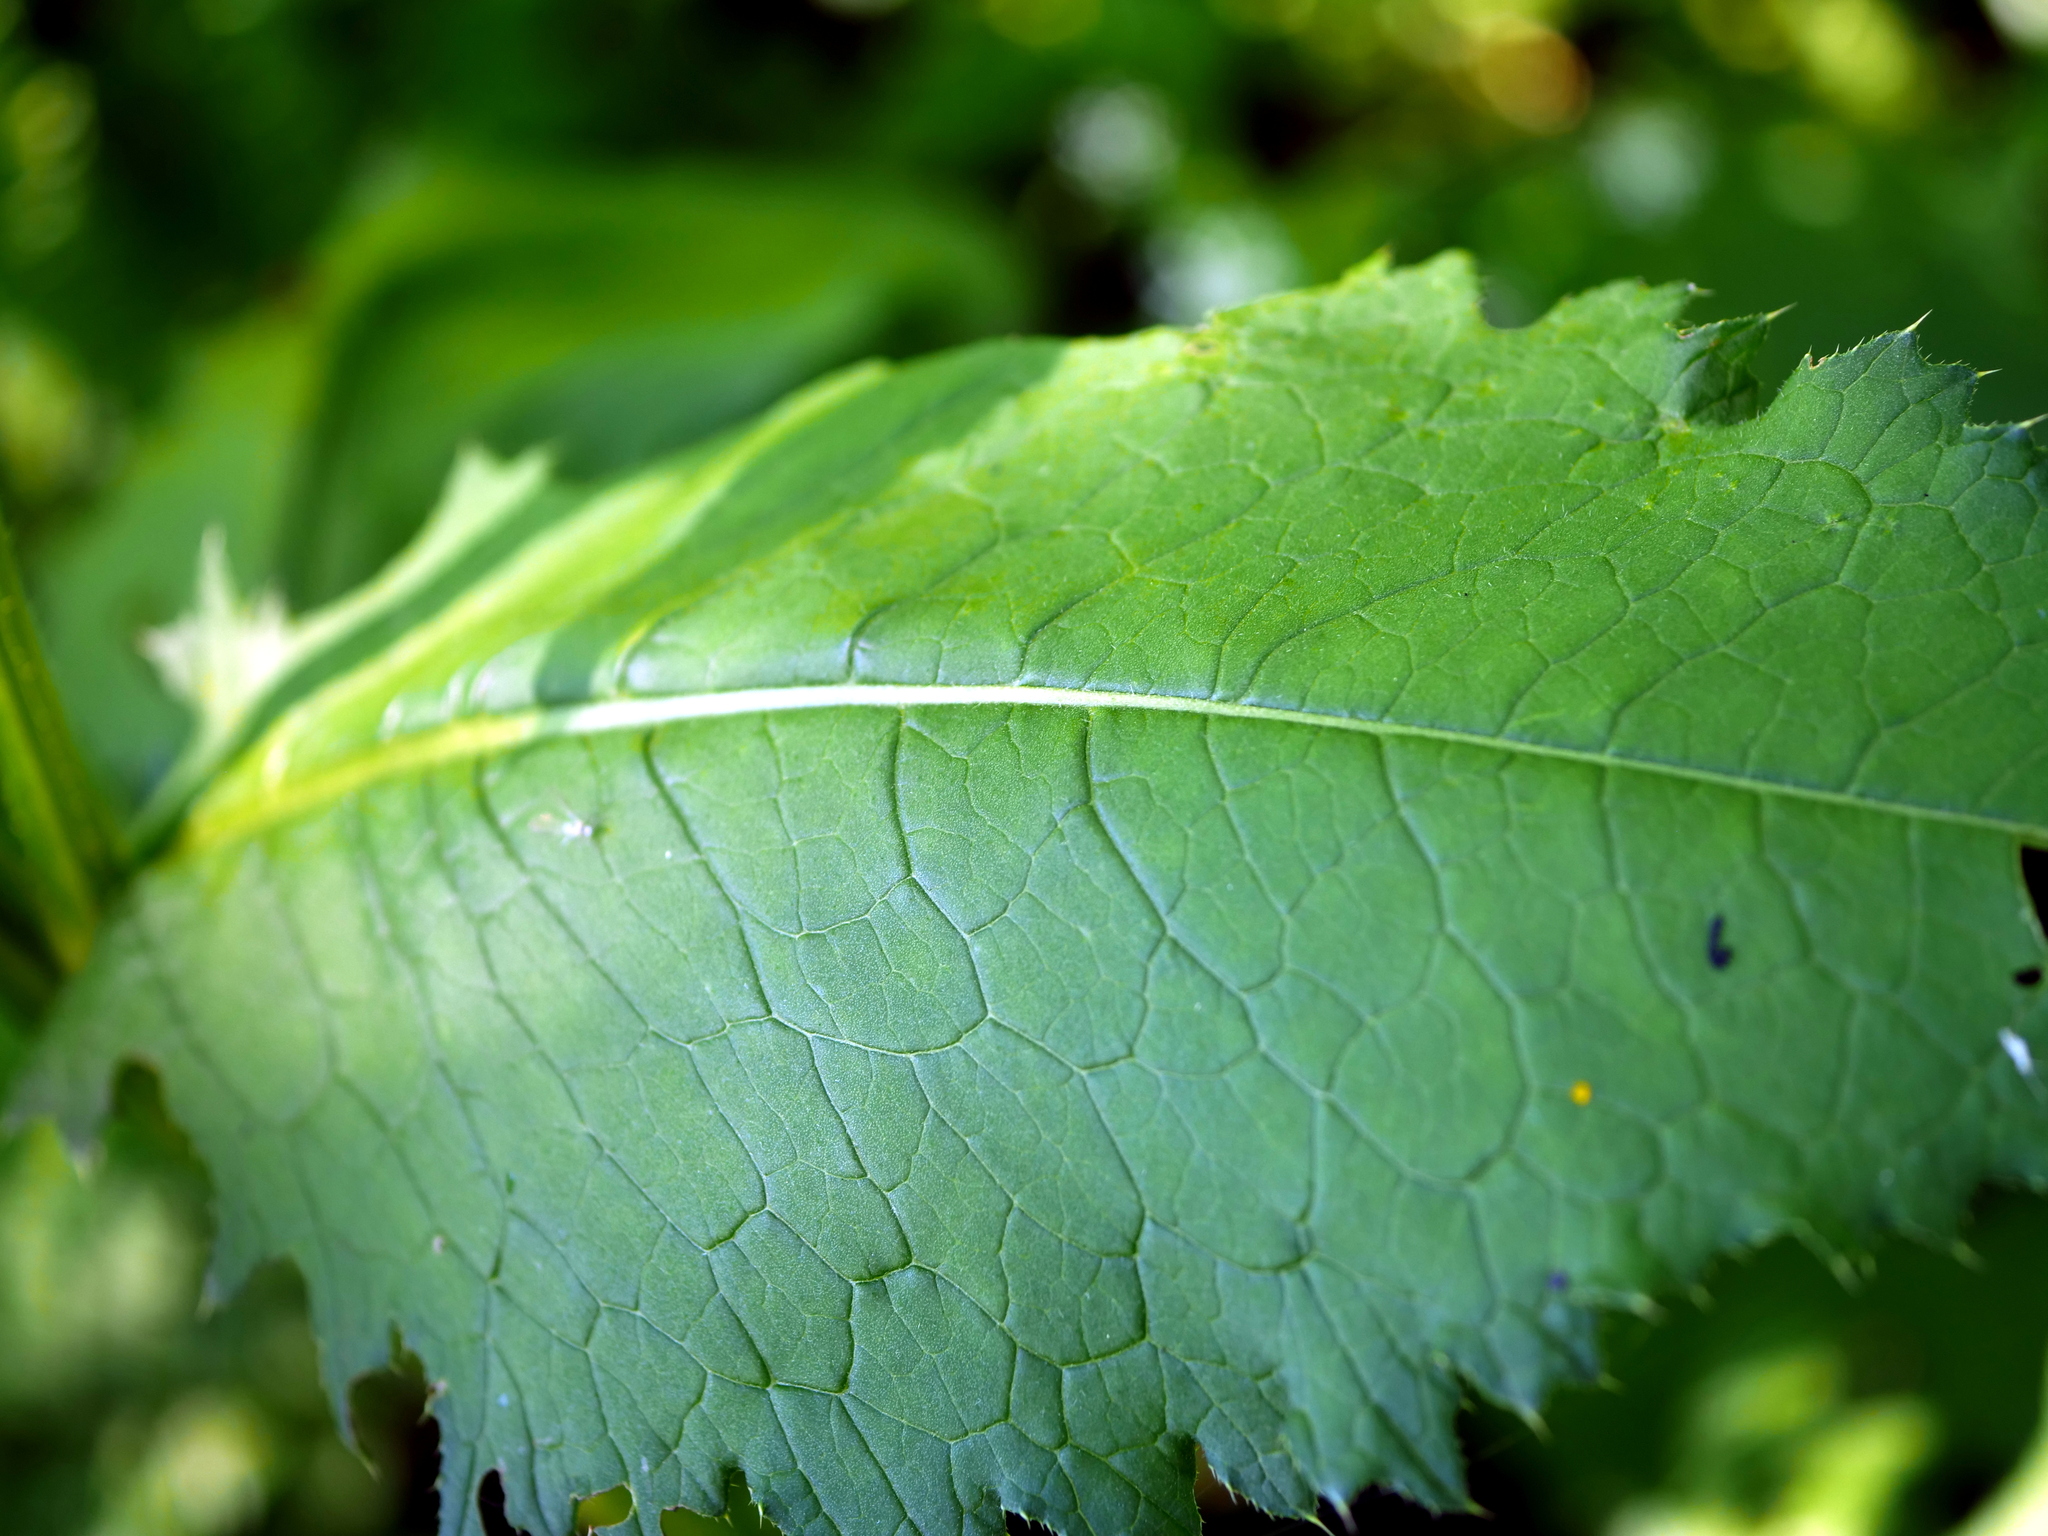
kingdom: Plantae
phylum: Tracheophyta
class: Magnoliopsida
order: Asterales
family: Asteraceae
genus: Carduus
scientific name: Carduus personata
